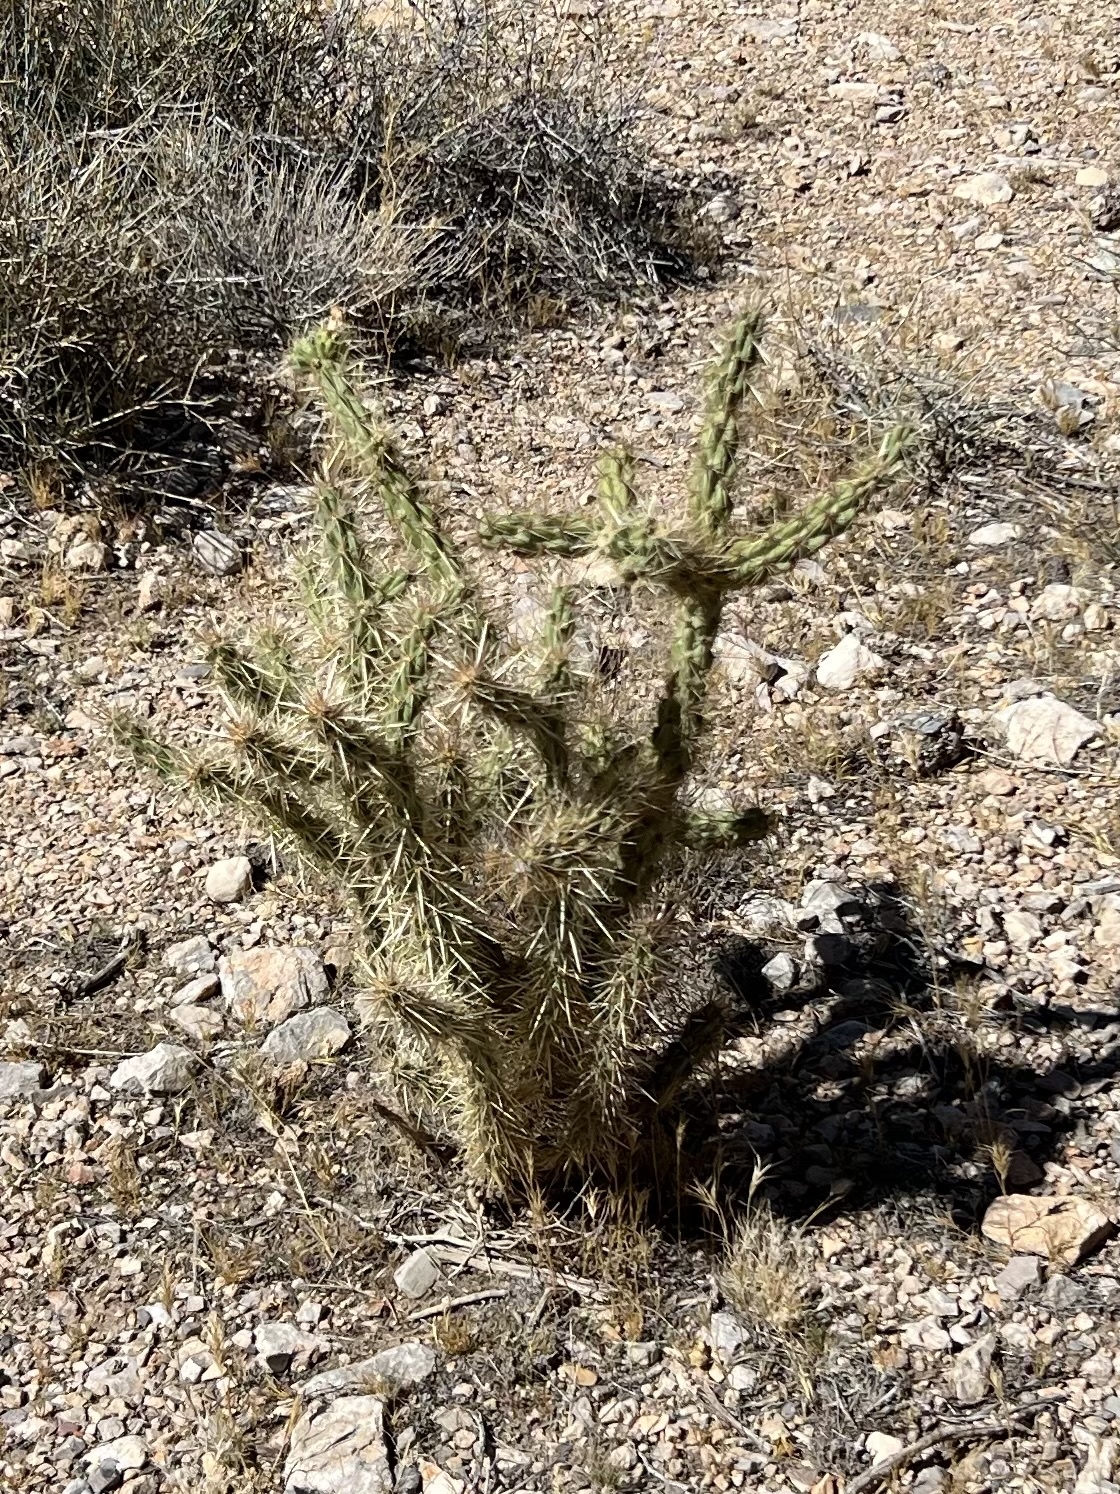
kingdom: Plantae
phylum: Tracheophyta
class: Magnoliopsida
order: Caryophyllales
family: Cactaceae
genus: Cylindropuntia
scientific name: Cylindropuntia acanthocarpa
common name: Buckhorn cholla
